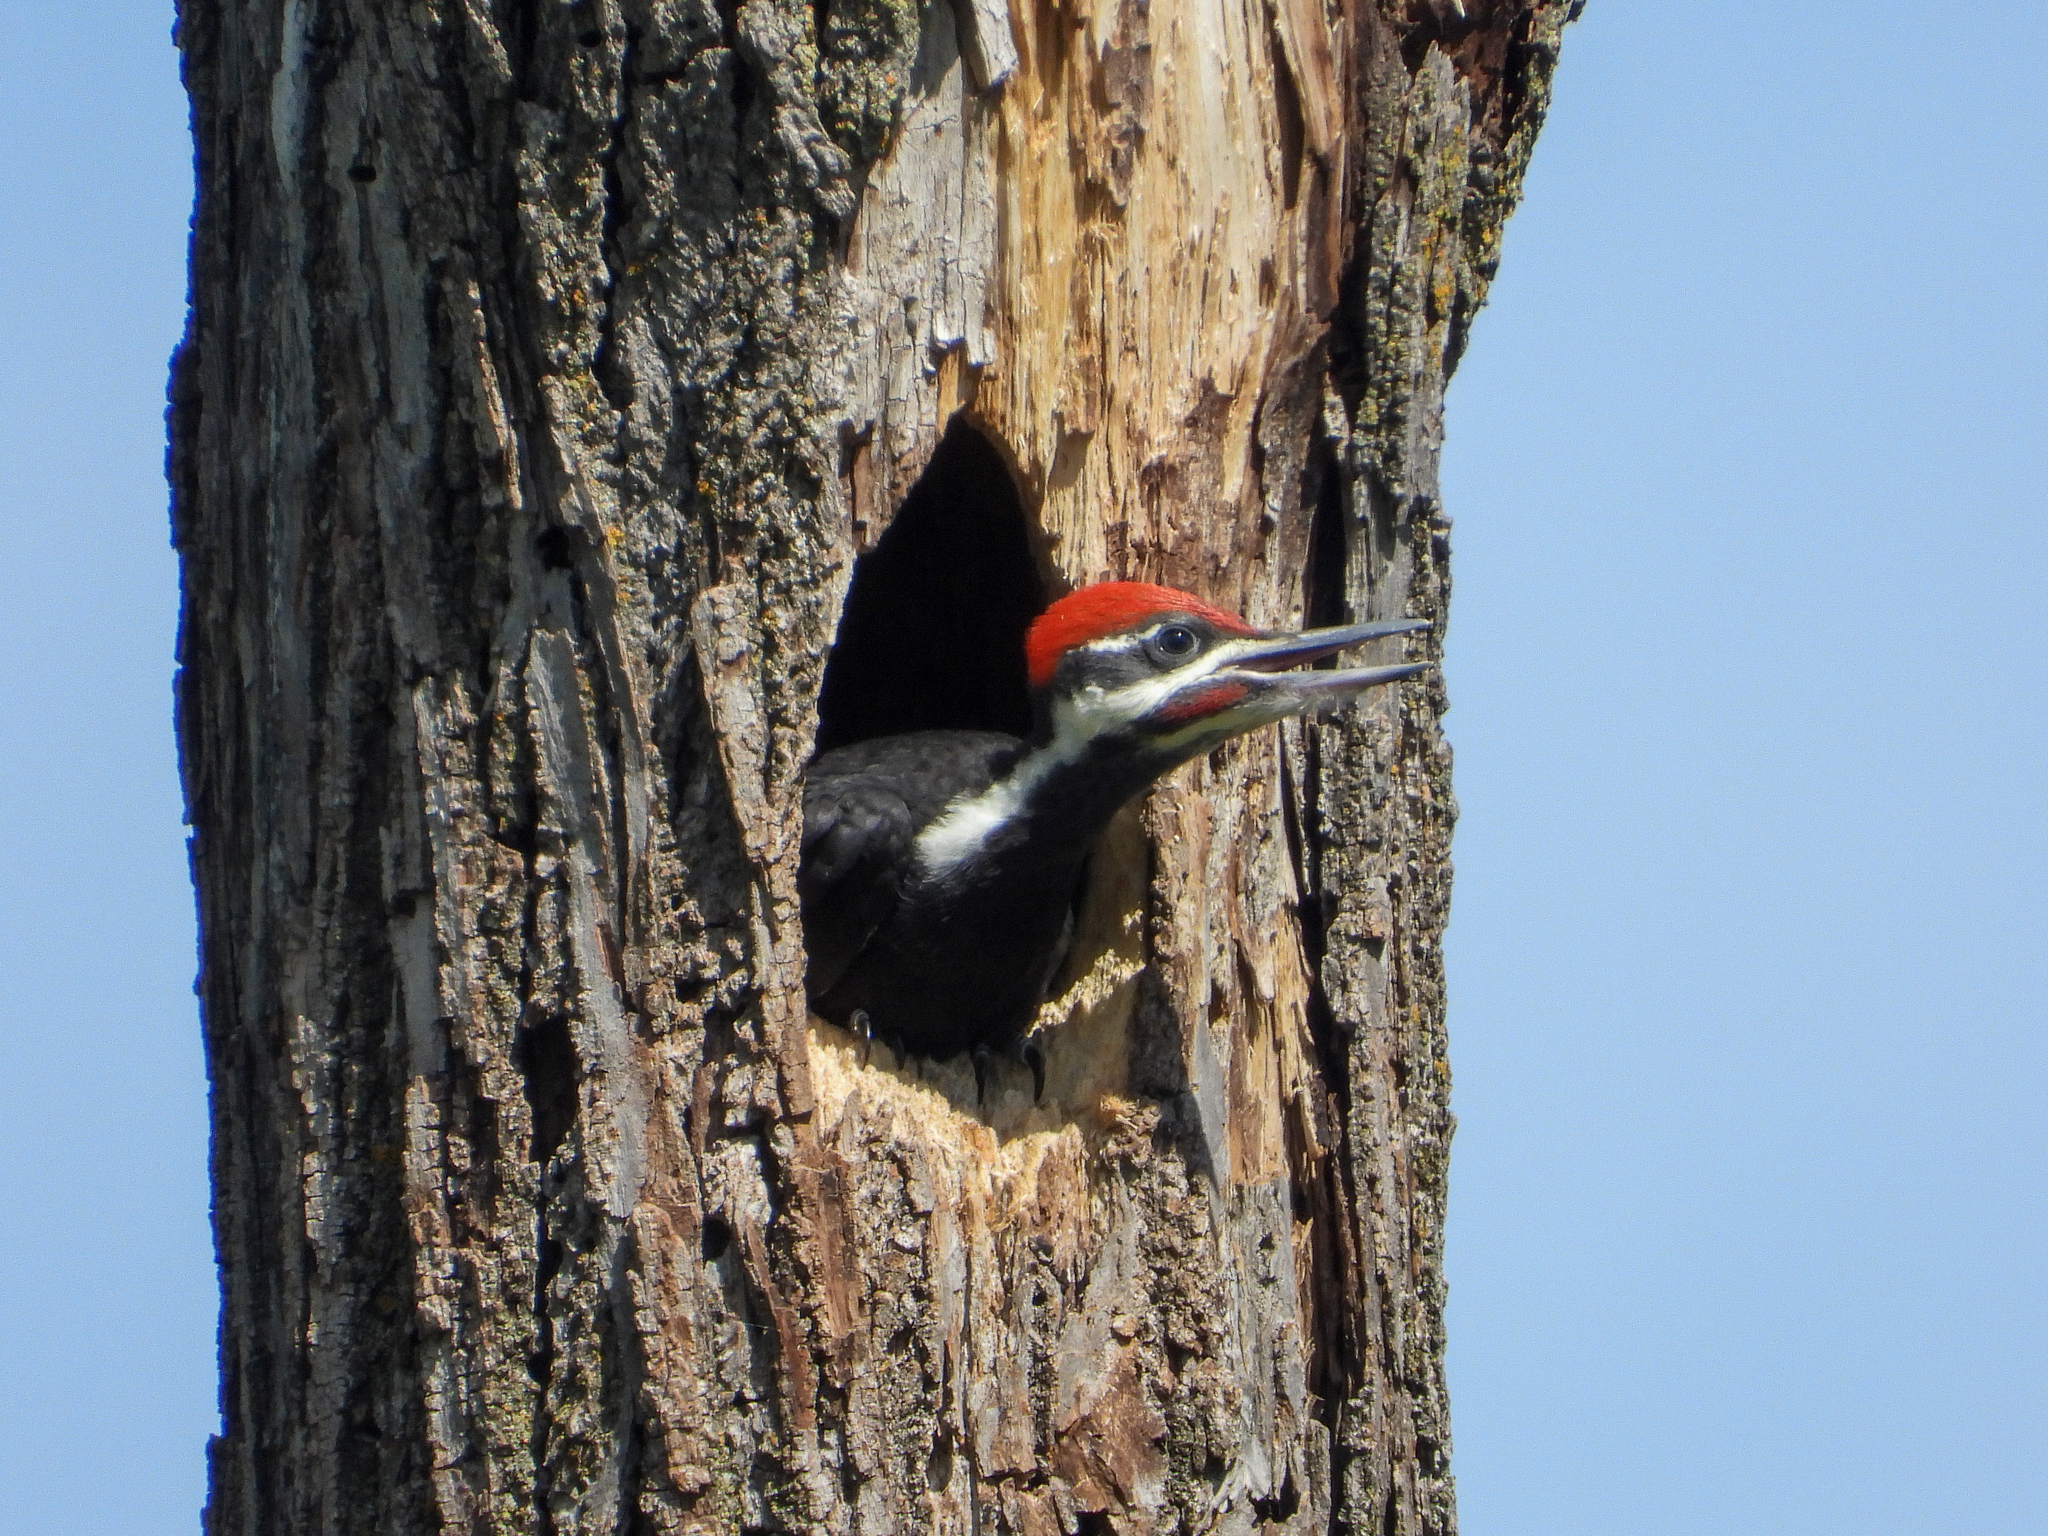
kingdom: Animalia
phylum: Chordata
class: Aves
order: Piciformes
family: Picidae
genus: Dryocopus
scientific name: Dryocopus pileatus
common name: Pileated woodpecker
